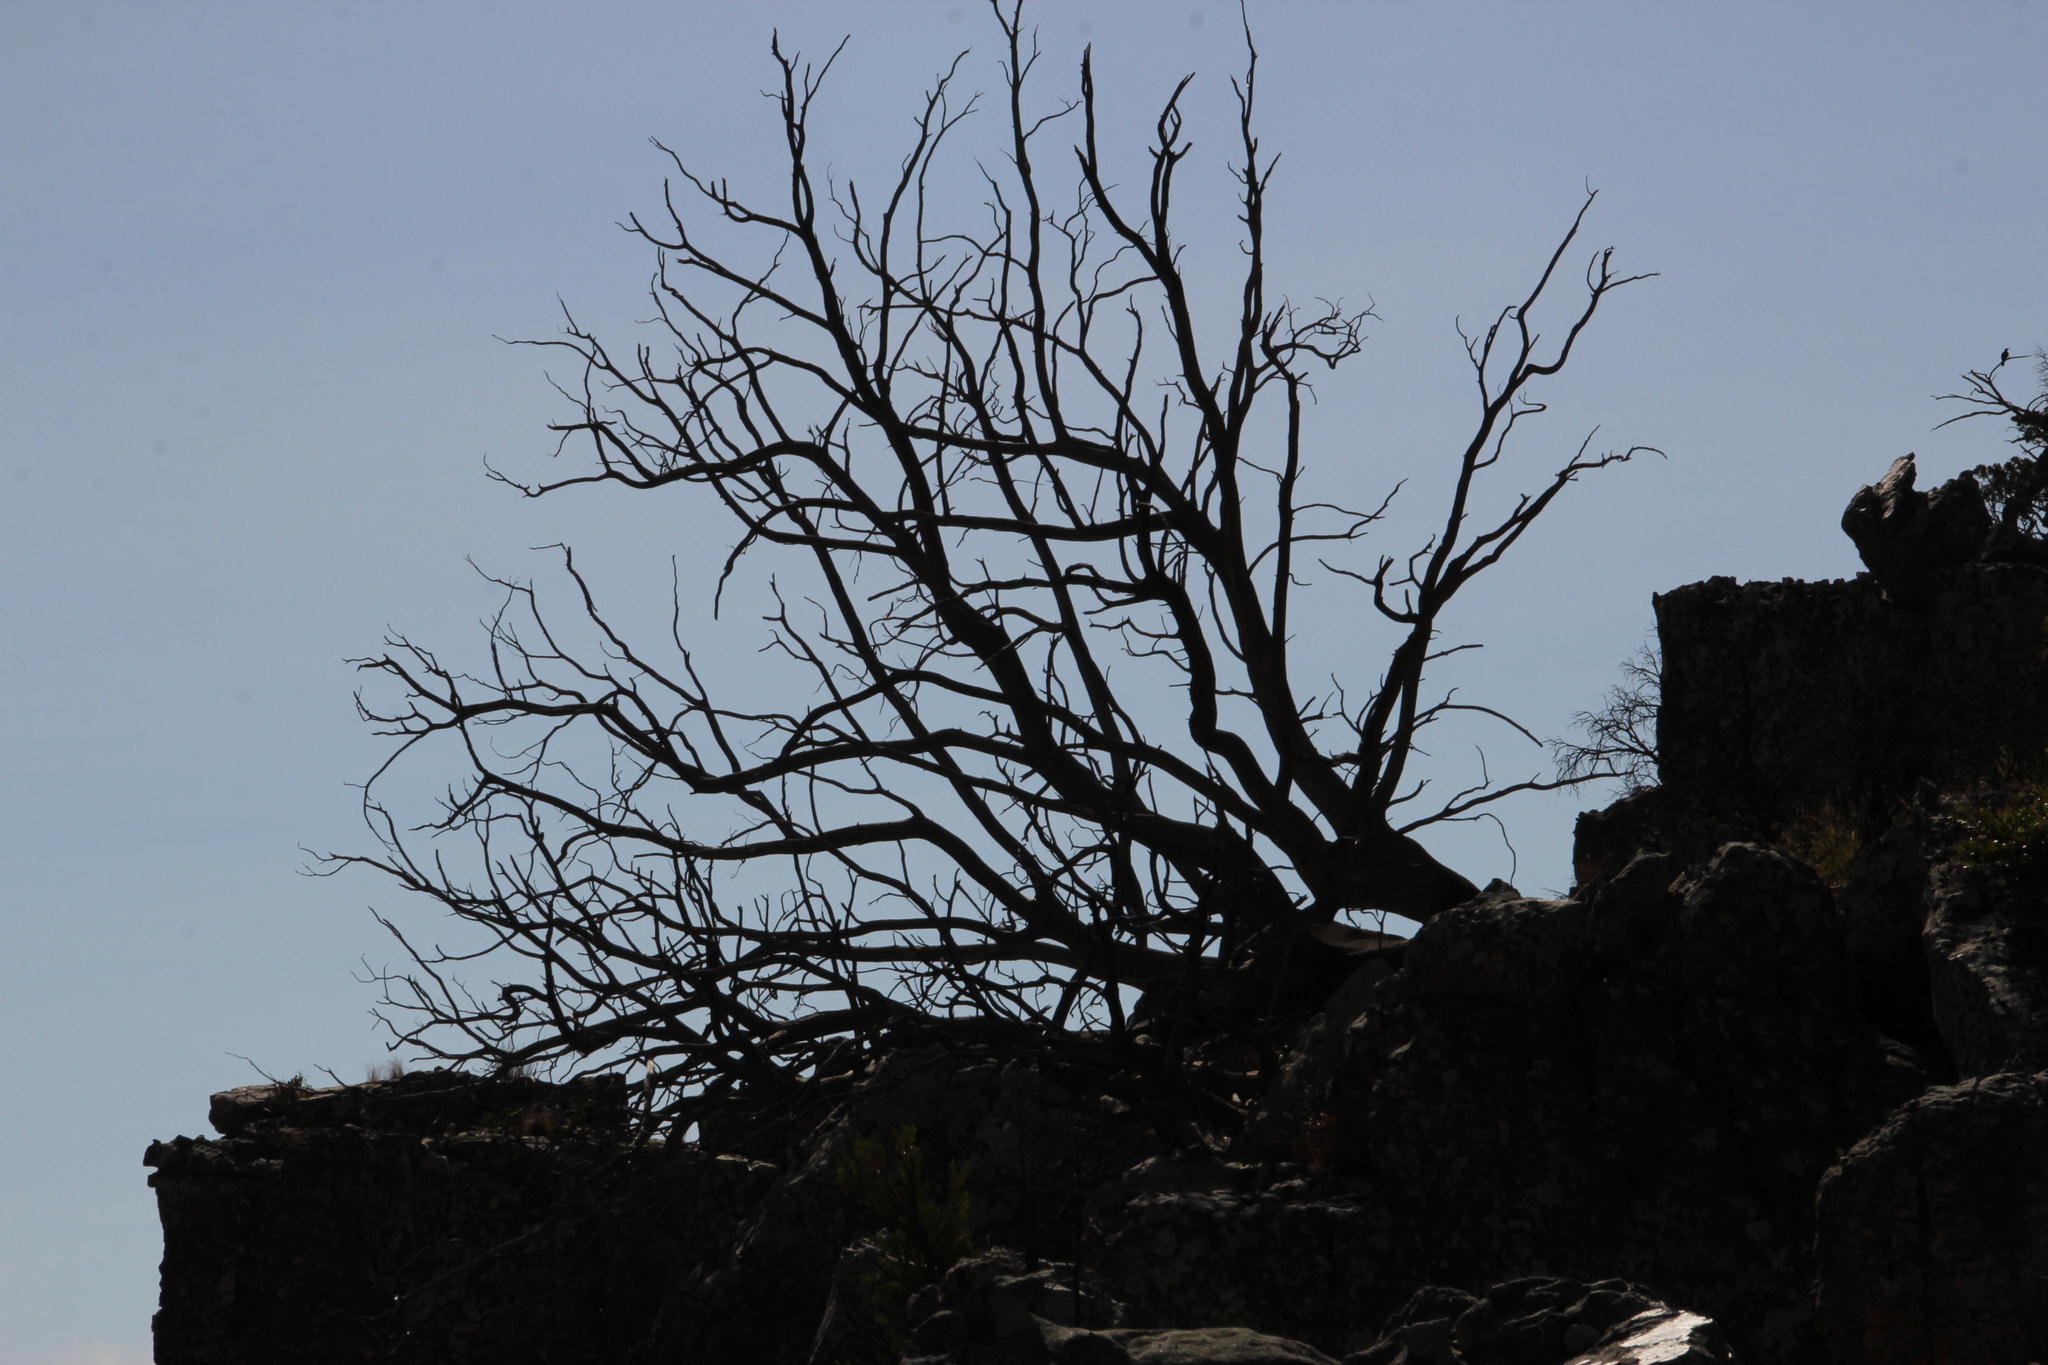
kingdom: Plantae
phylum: Tracheophyta
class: Pinopsida
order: Pinales
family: Cupressaceae
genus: Widdringtonia
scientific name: Widdringtonia nodiflora
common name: Cape cypress
